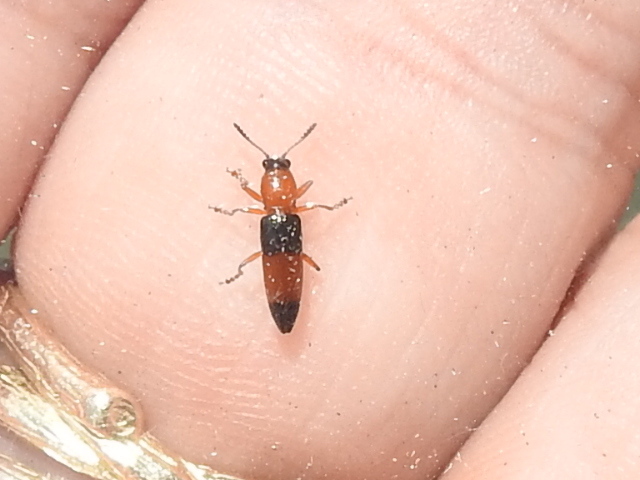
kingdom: Animalia
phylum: Arthropoda
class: Insecta
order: Coleoptera
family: Erotylidae
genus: Languria
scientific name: Languria trifasciata
